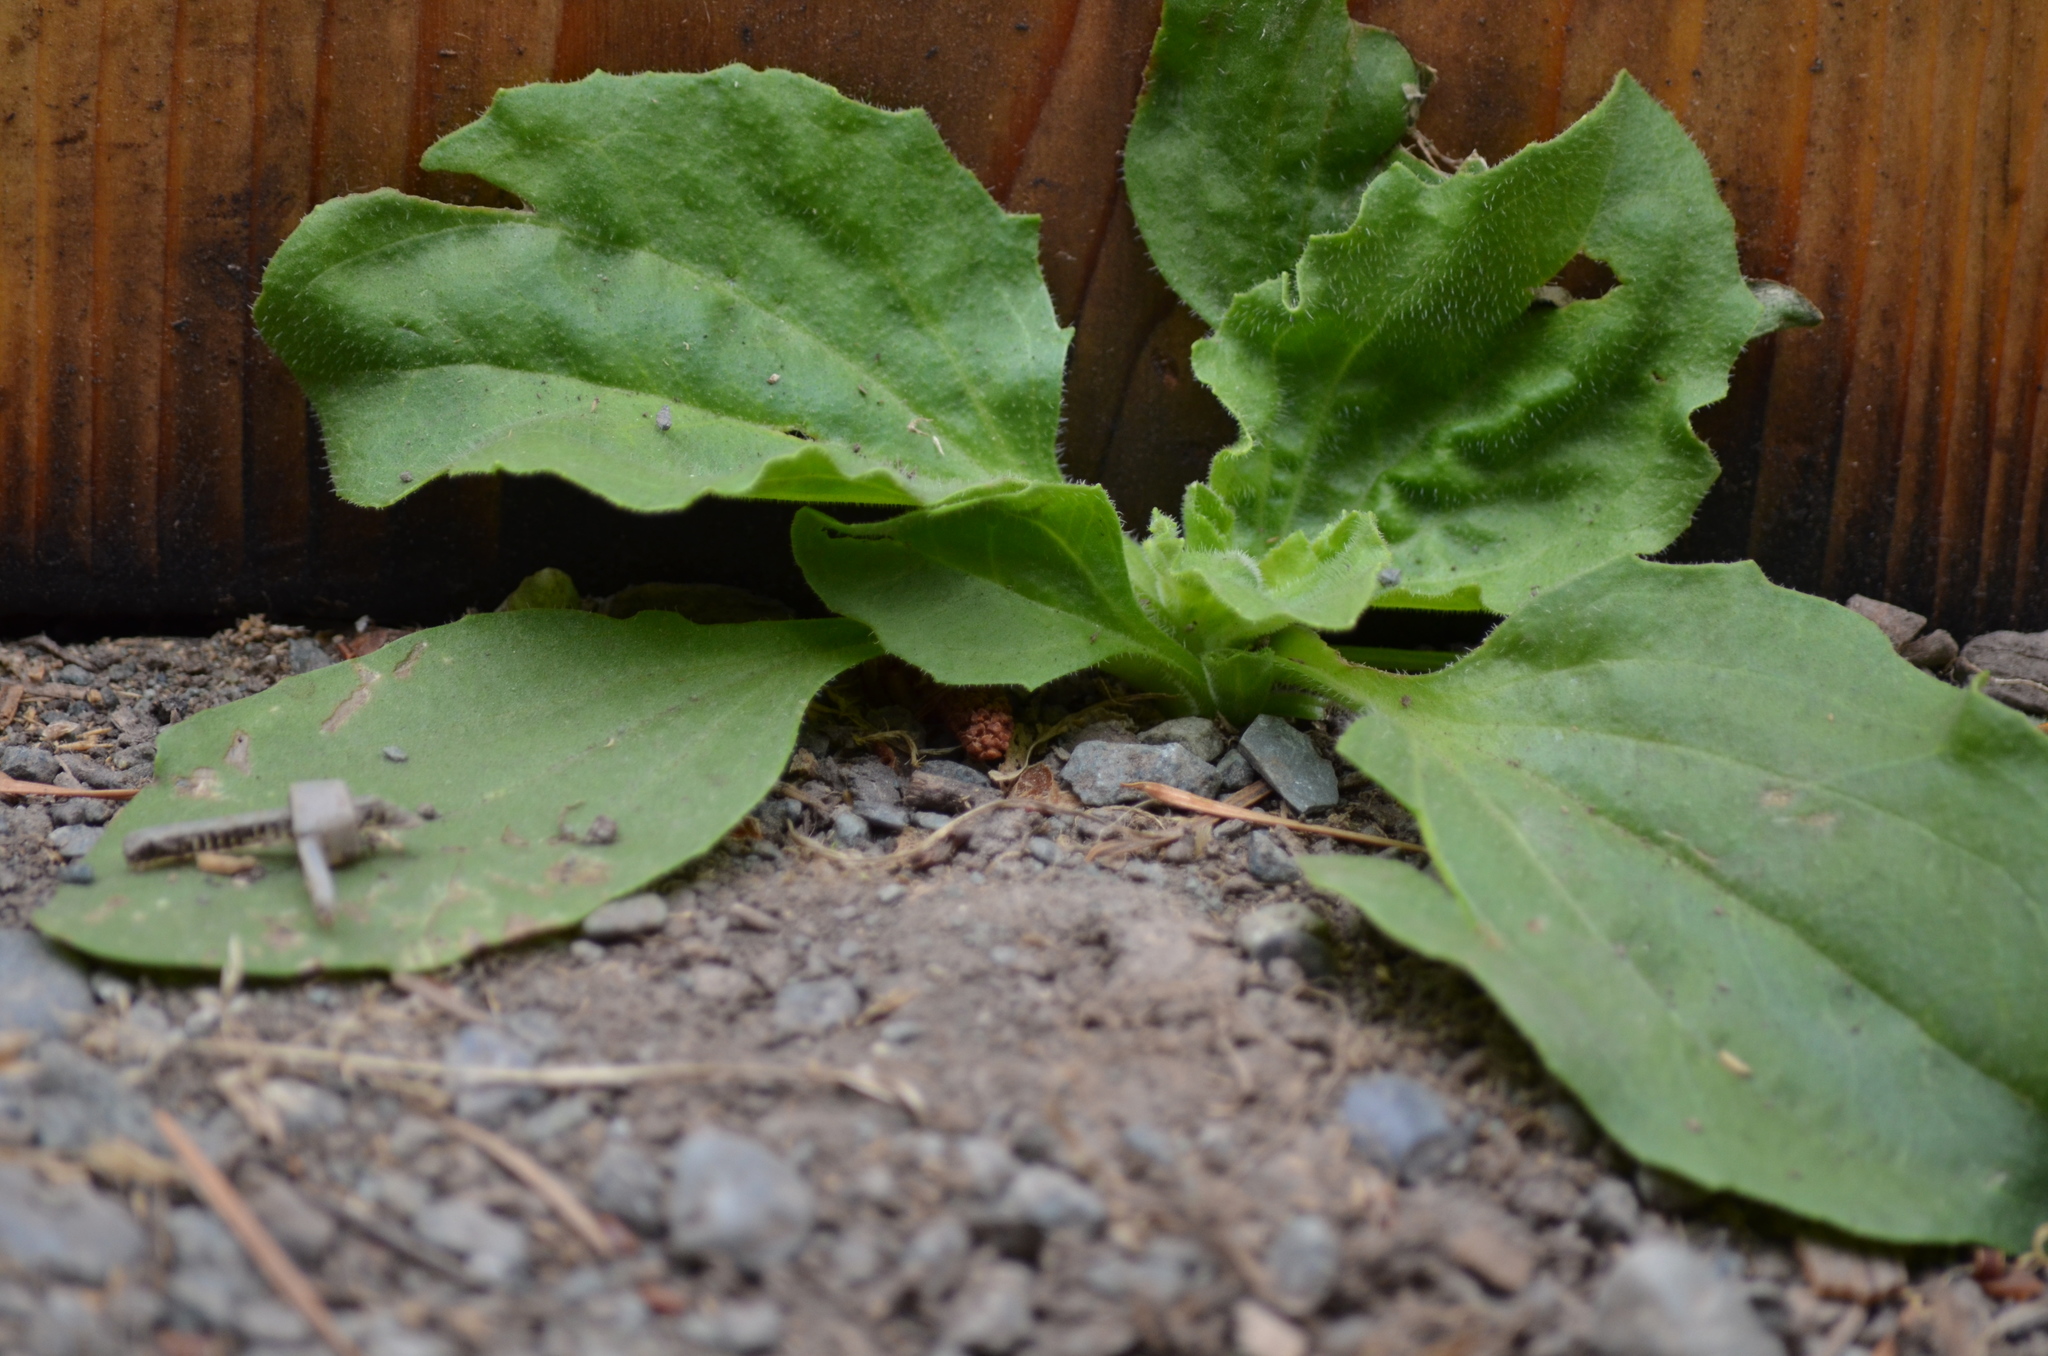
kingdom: Plantae
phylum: Tracheophyta
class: Magnoliopsida
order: Lamiales
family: Plantaginaceae
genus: Plantago
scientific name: Plantago major
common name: Common plantain
